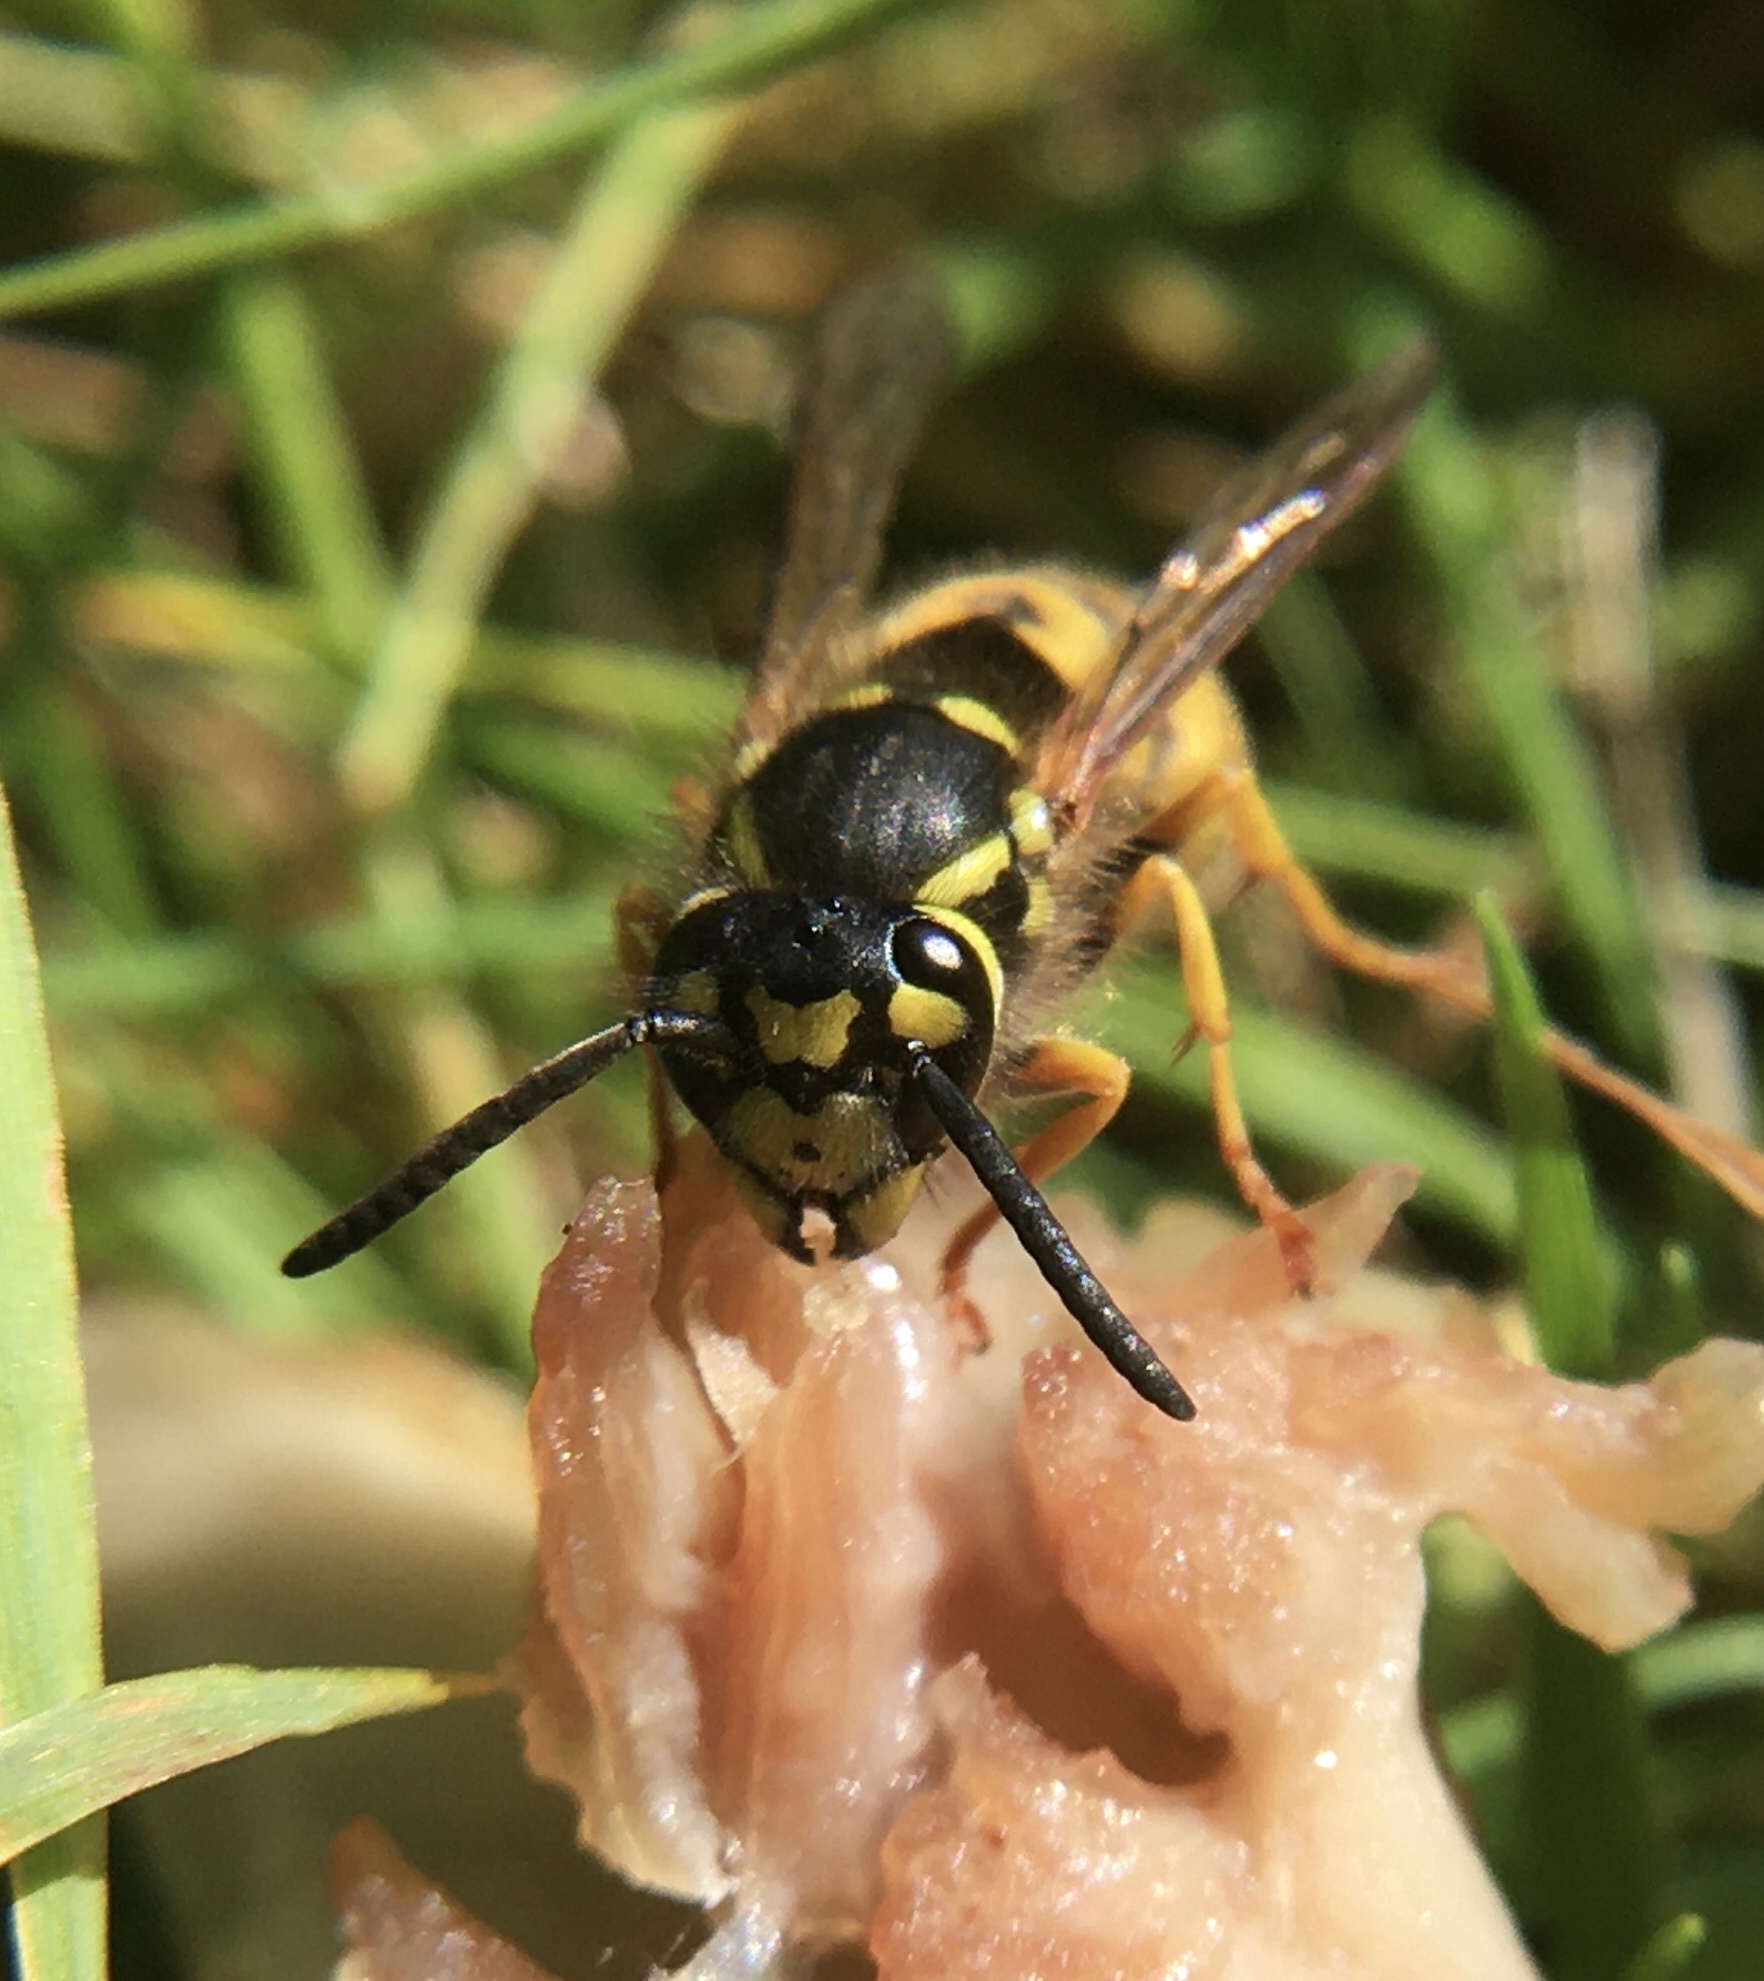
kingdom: Animalia
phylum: Arthropoda
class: Insecta
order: Hymenoptera
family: Vespidae
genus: Vespula
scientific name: Vespula germanica
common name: German wasp
